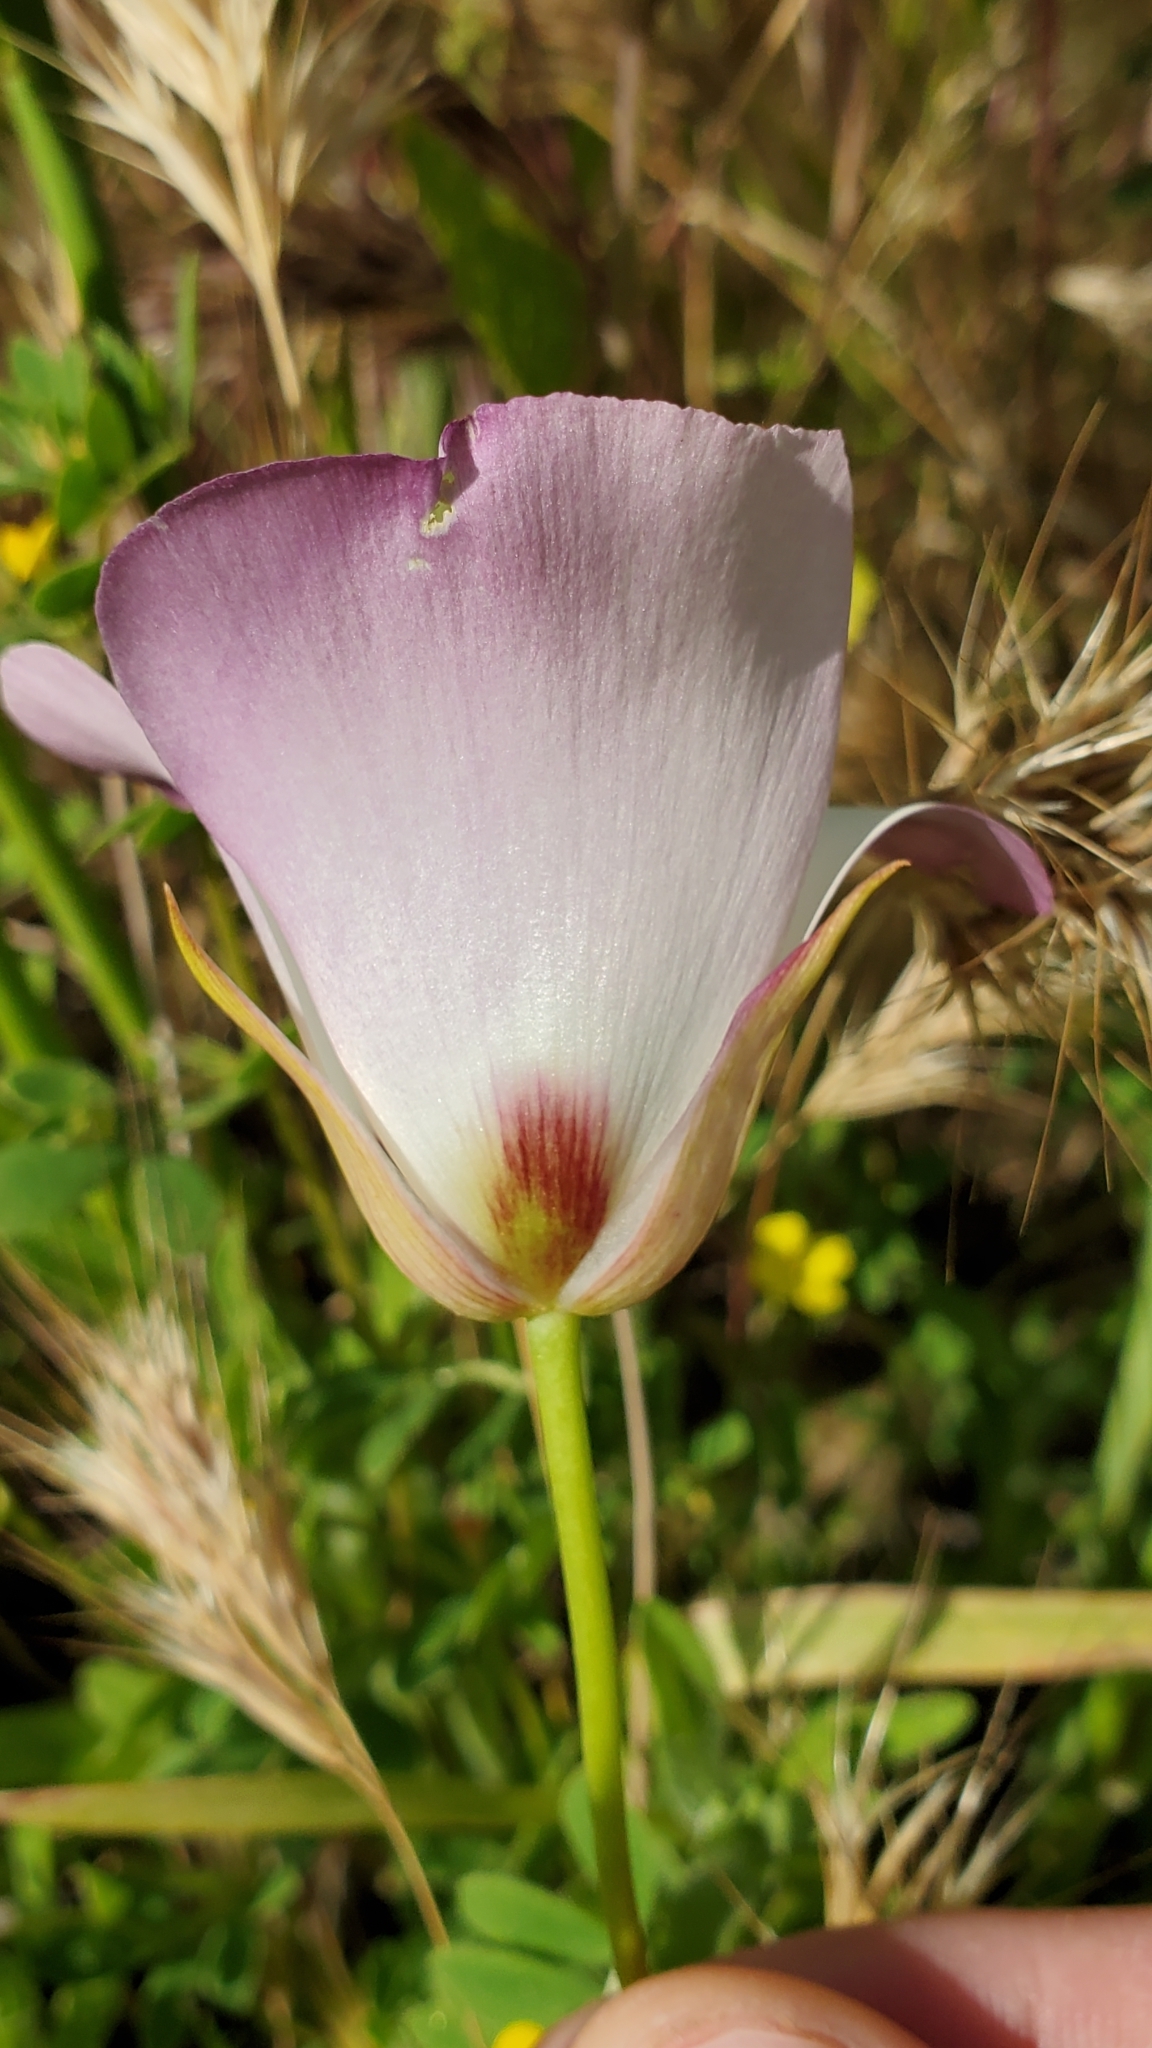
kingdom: Plantae
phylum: Tracheophyta
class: Liliopsida
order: Liliales
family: Liliaceae
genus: Calochortus
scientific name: Calochortus catalinae
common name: Catalina mariposa-lily
